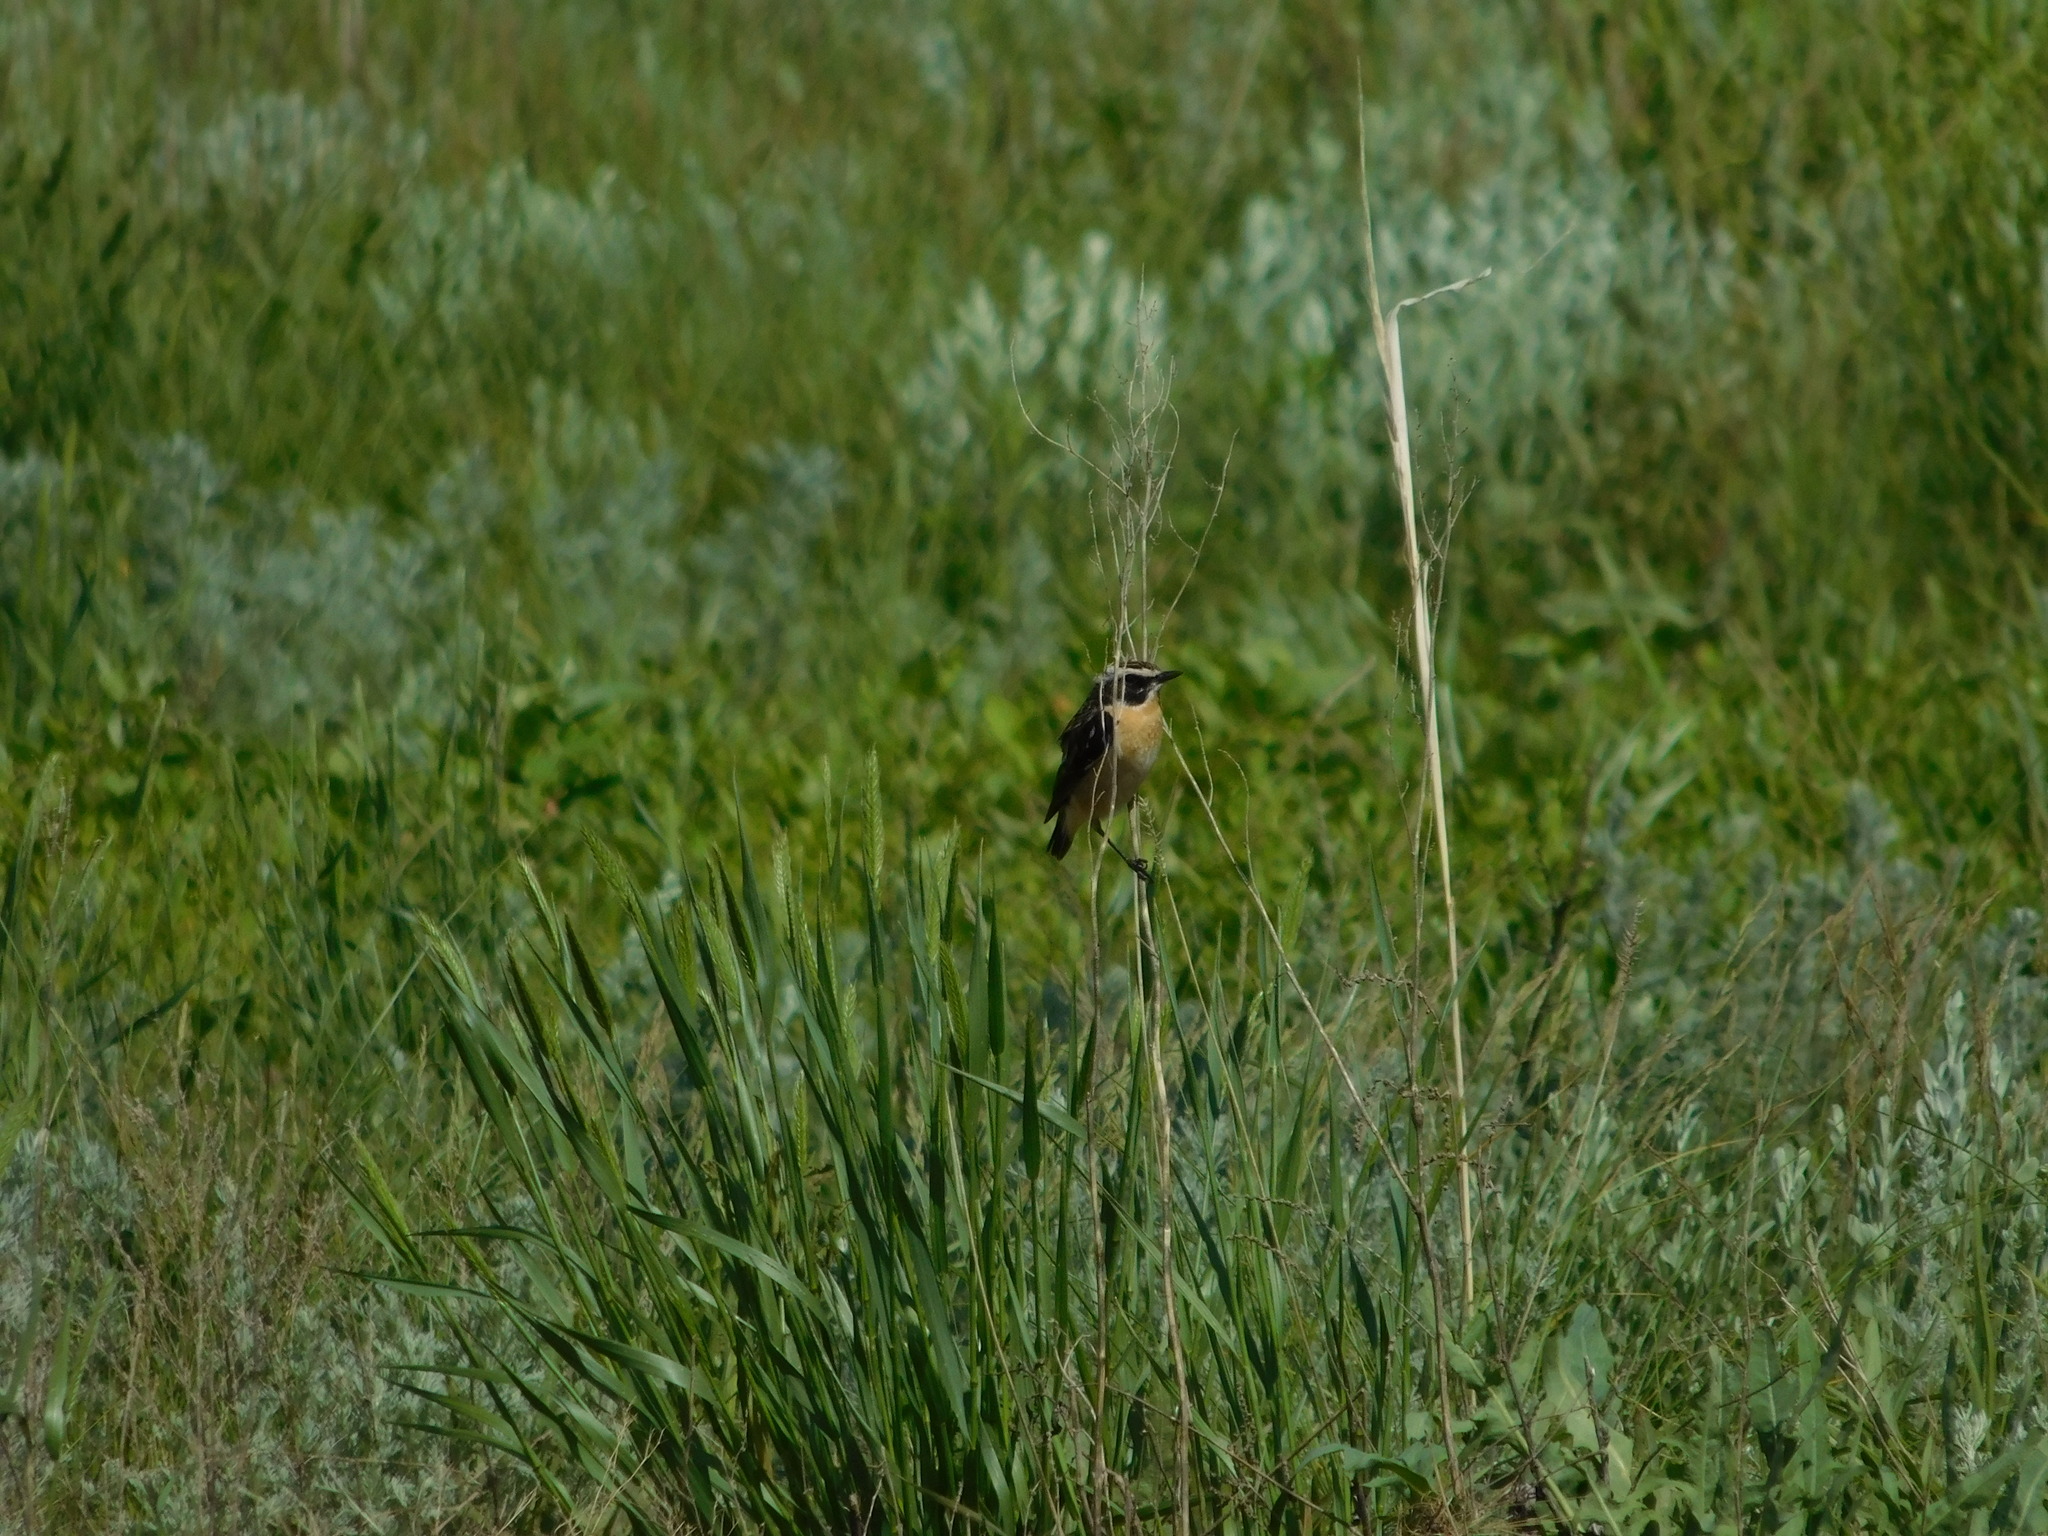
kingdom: Animalia
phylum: Chordata
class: Aves
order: Passeriformes
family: Muscicapidae
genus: Saxicola
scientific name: Saxicola rubetra
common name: Whinchat
